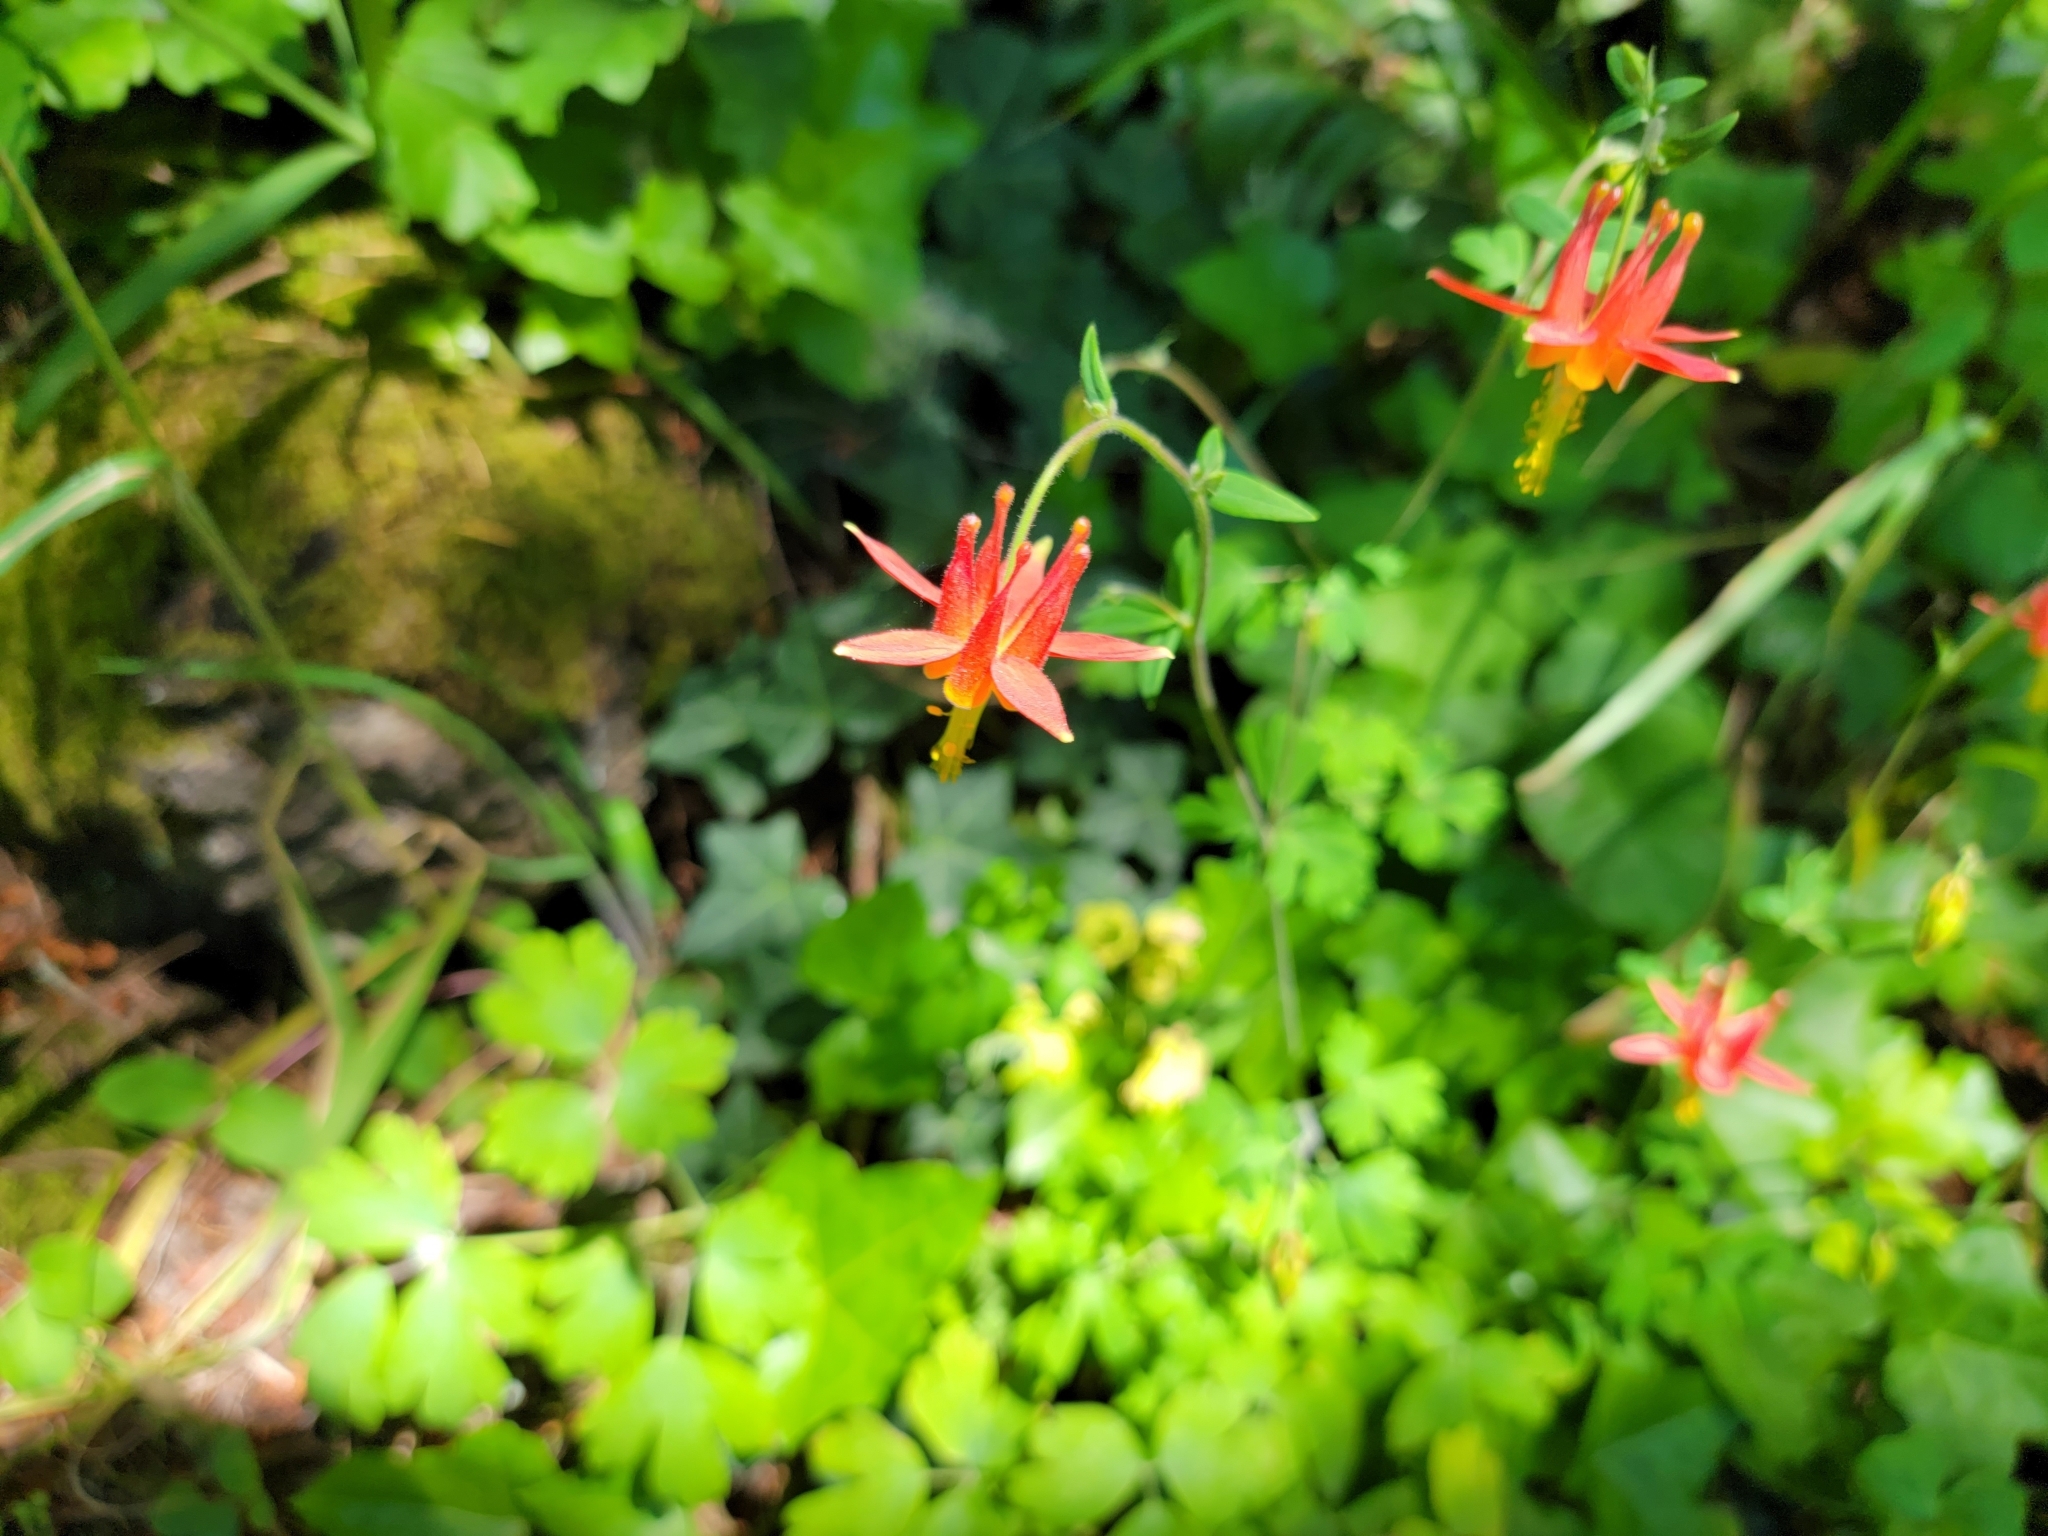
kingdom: Plantae
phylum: Tracheophyta
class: Magnoliopsida
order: Ranunculales
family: Ranunculaceae
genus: Aquilegia
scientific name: Aquilegia formosa
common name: Sitka columbine
